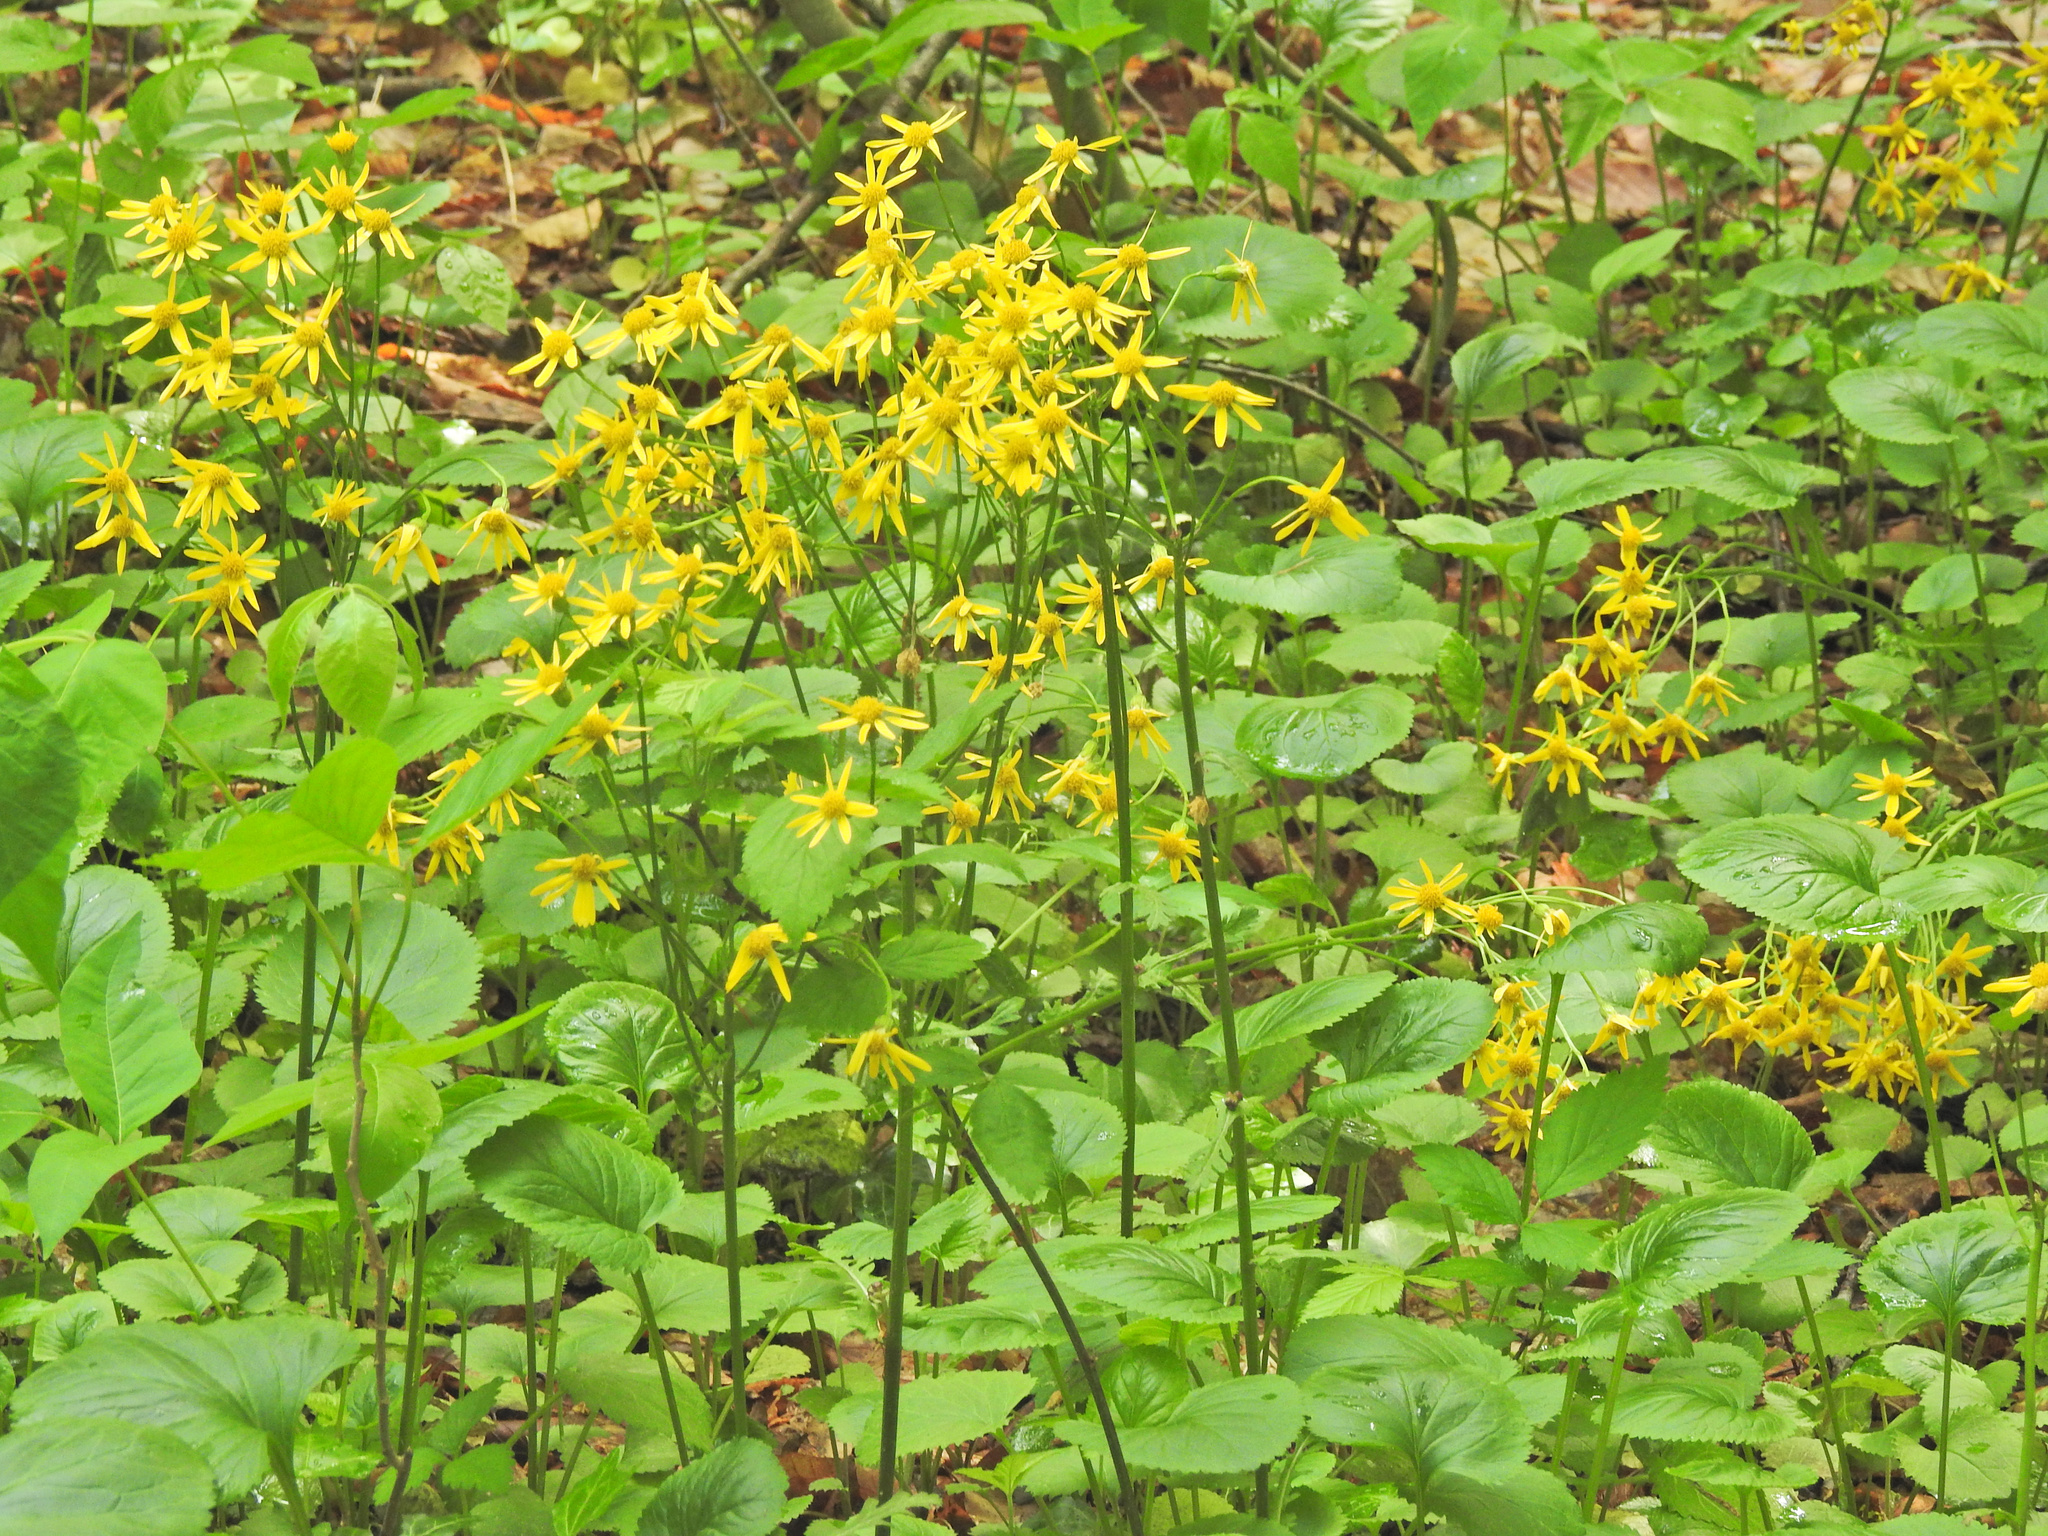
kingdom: Plantae
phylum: Tracheophyta
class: Magnoliopsida
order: Asterales
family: Asteraceae
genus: Packera
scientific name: Packera aurea
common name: Golden groundsel
